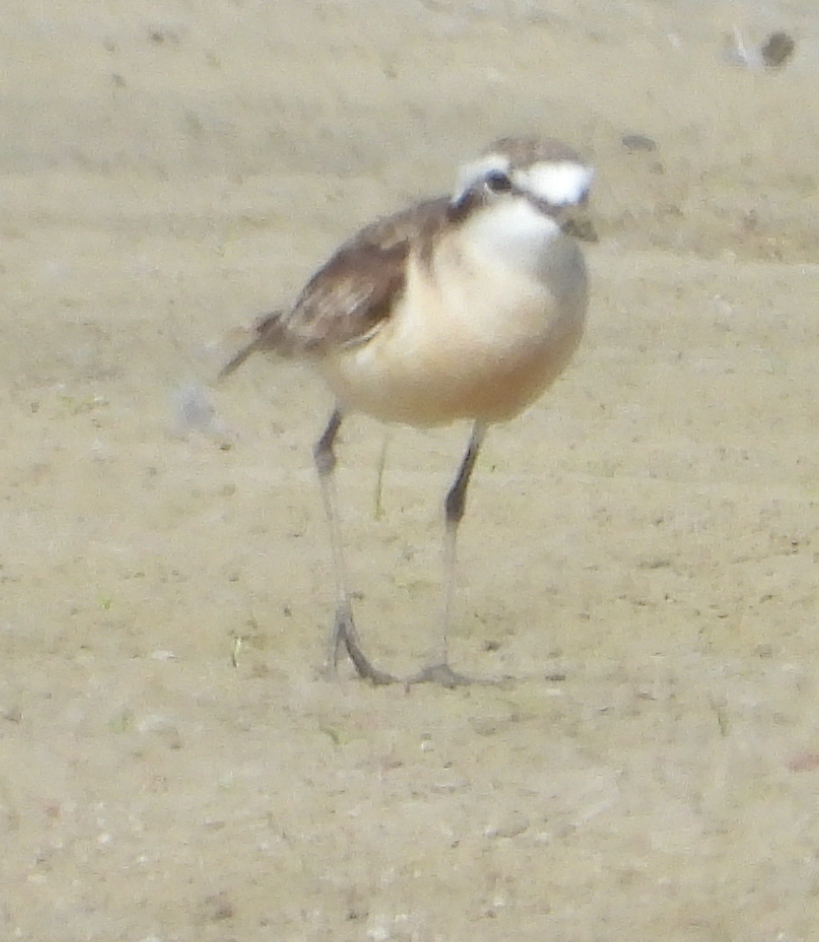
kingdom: Animalia
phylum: Chordata
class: Aves
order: Charadriiformes
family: Charadriidae
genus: Anarhynchus
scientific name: Anarhynchus
